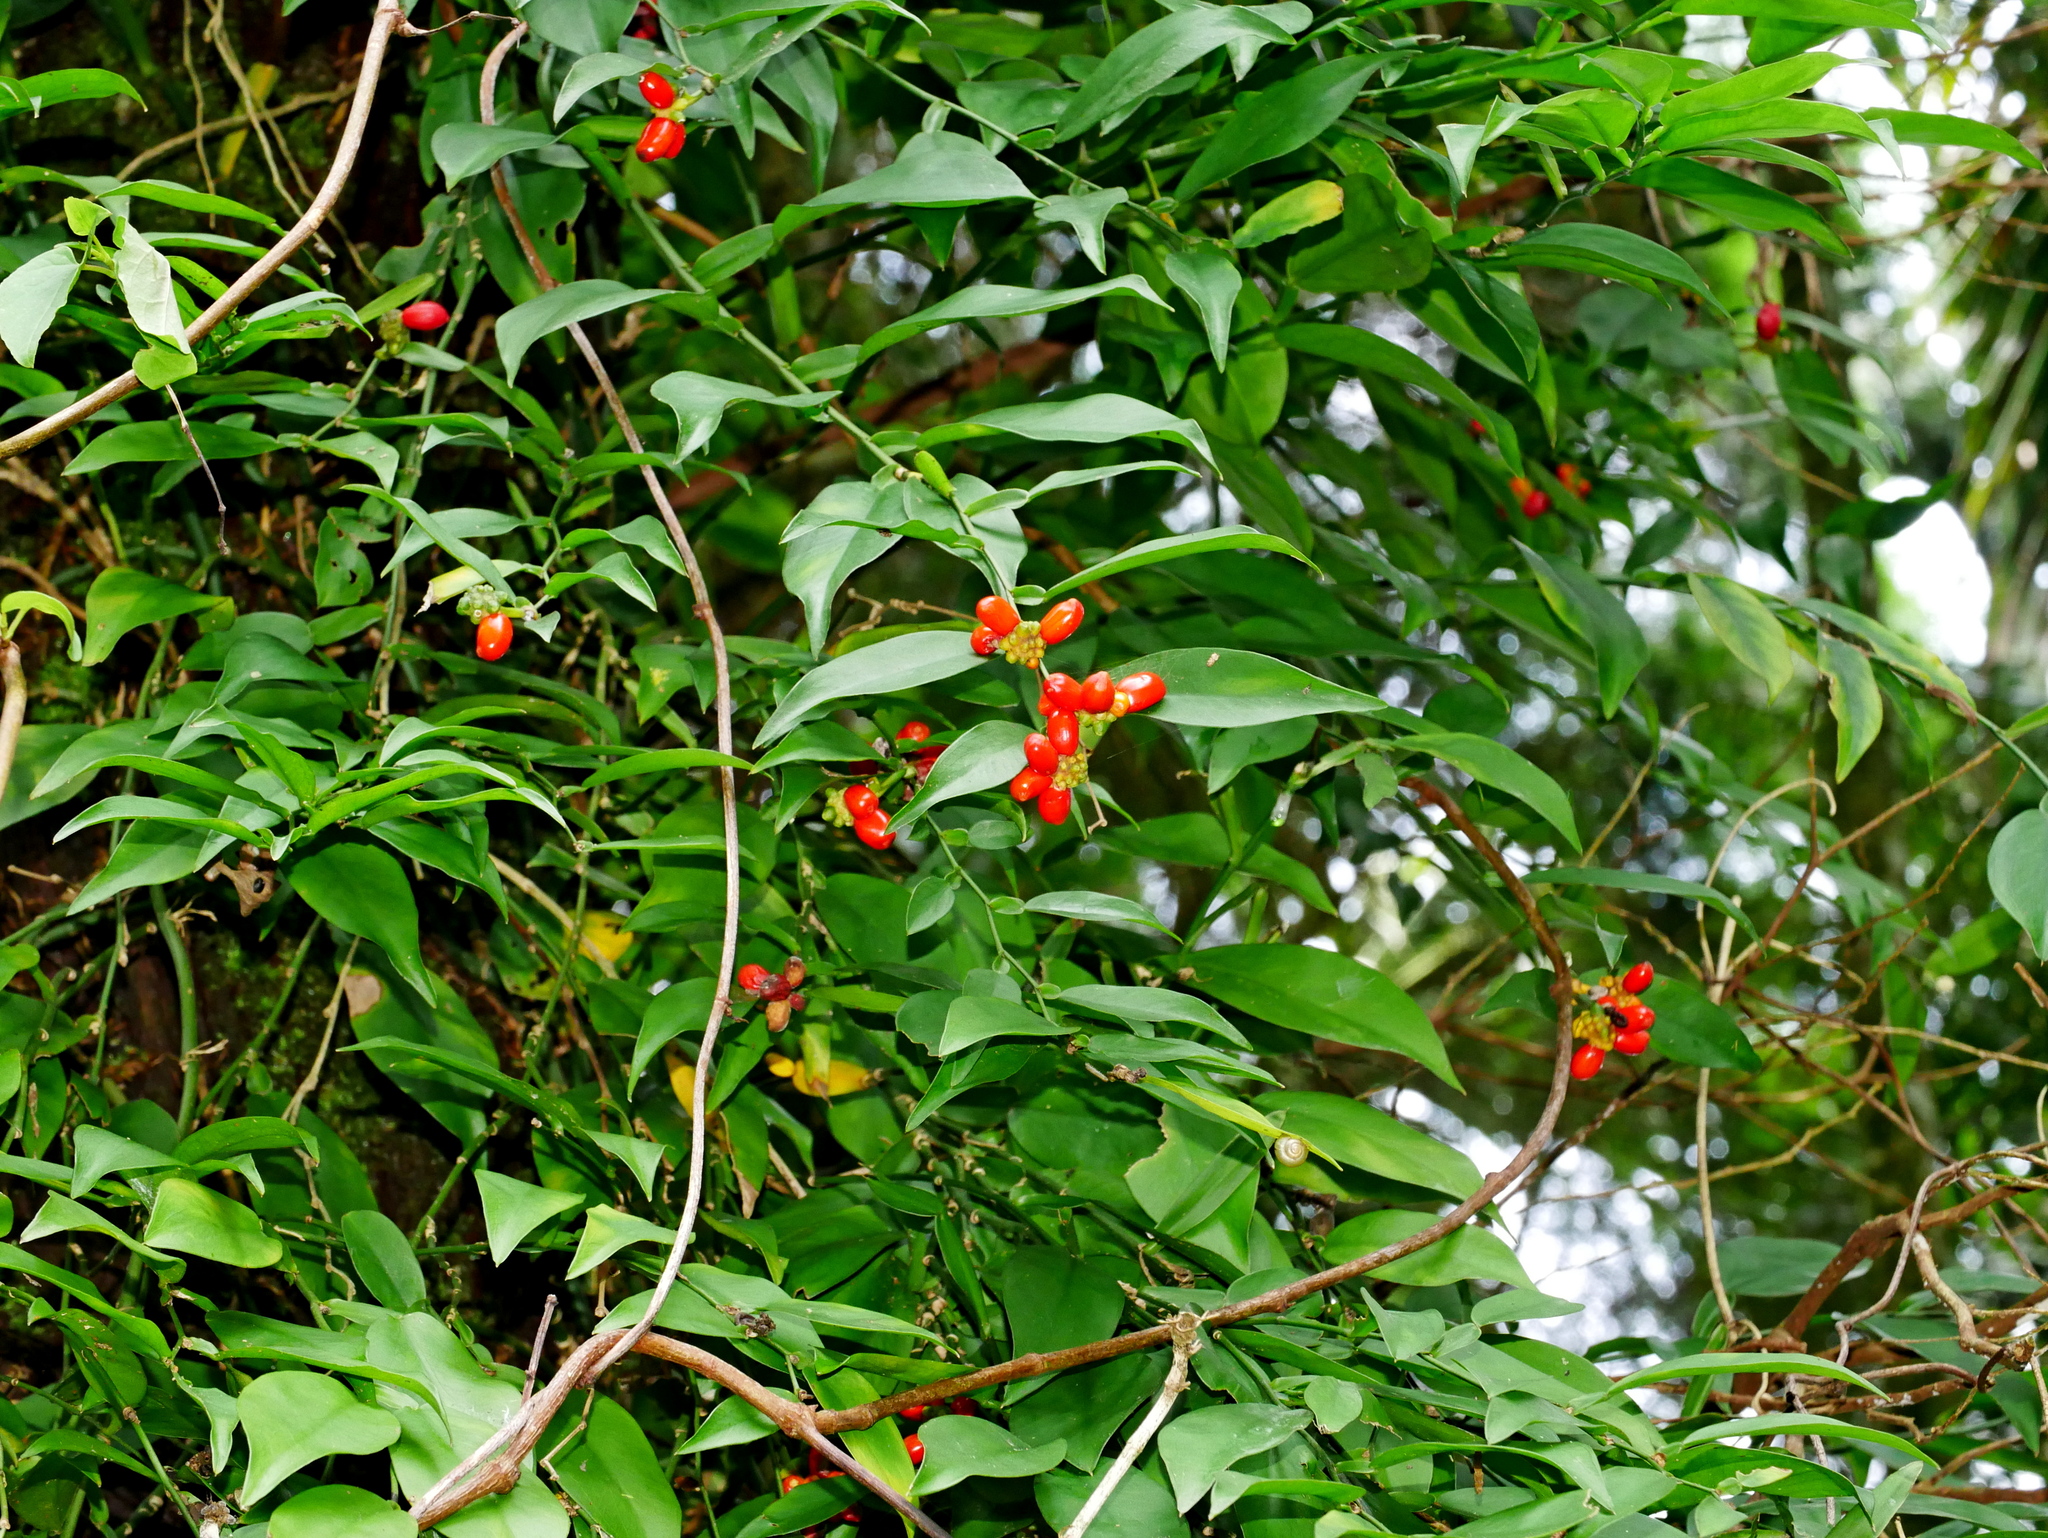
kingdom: Plantae
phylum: Tracheophyta
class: Liliopsida
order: Alismatales
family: Araceae
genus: Pothos
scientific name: Pothos chinensis
